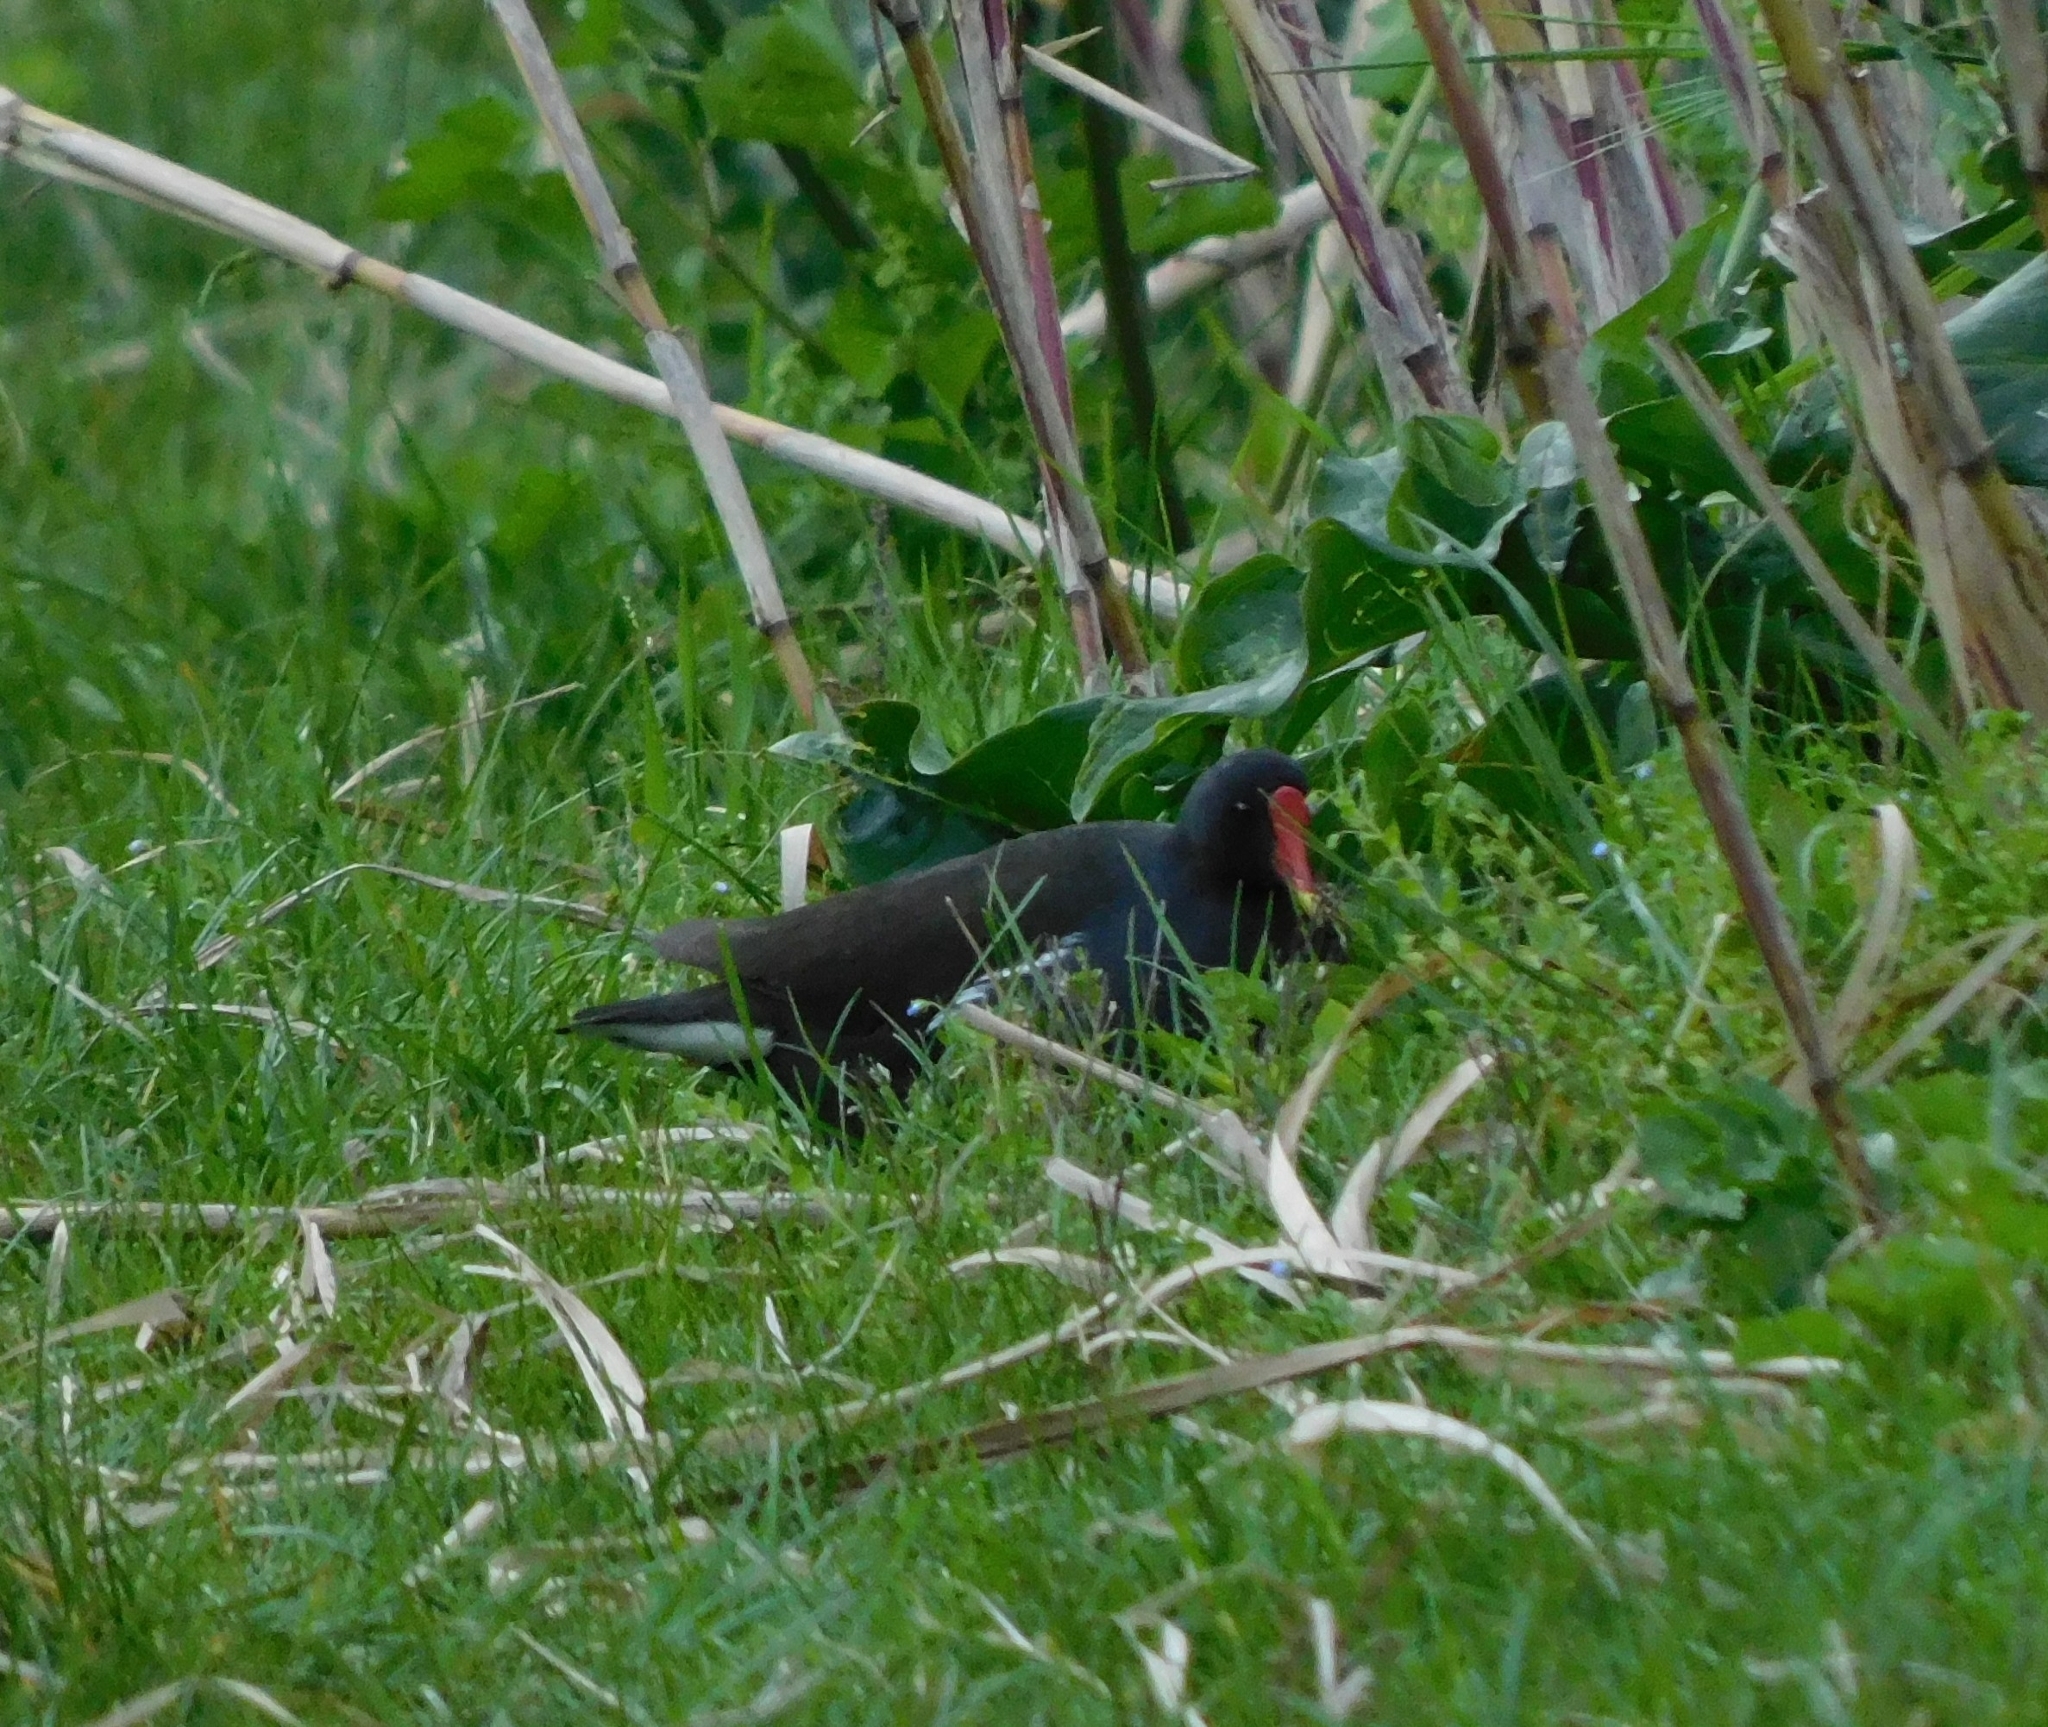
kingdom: Animalia
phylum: Chordata
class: Aves
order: Gruiformes
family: Rallidae
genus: Gallinula
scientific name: Gallinula chloropus
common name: Common moorhen
